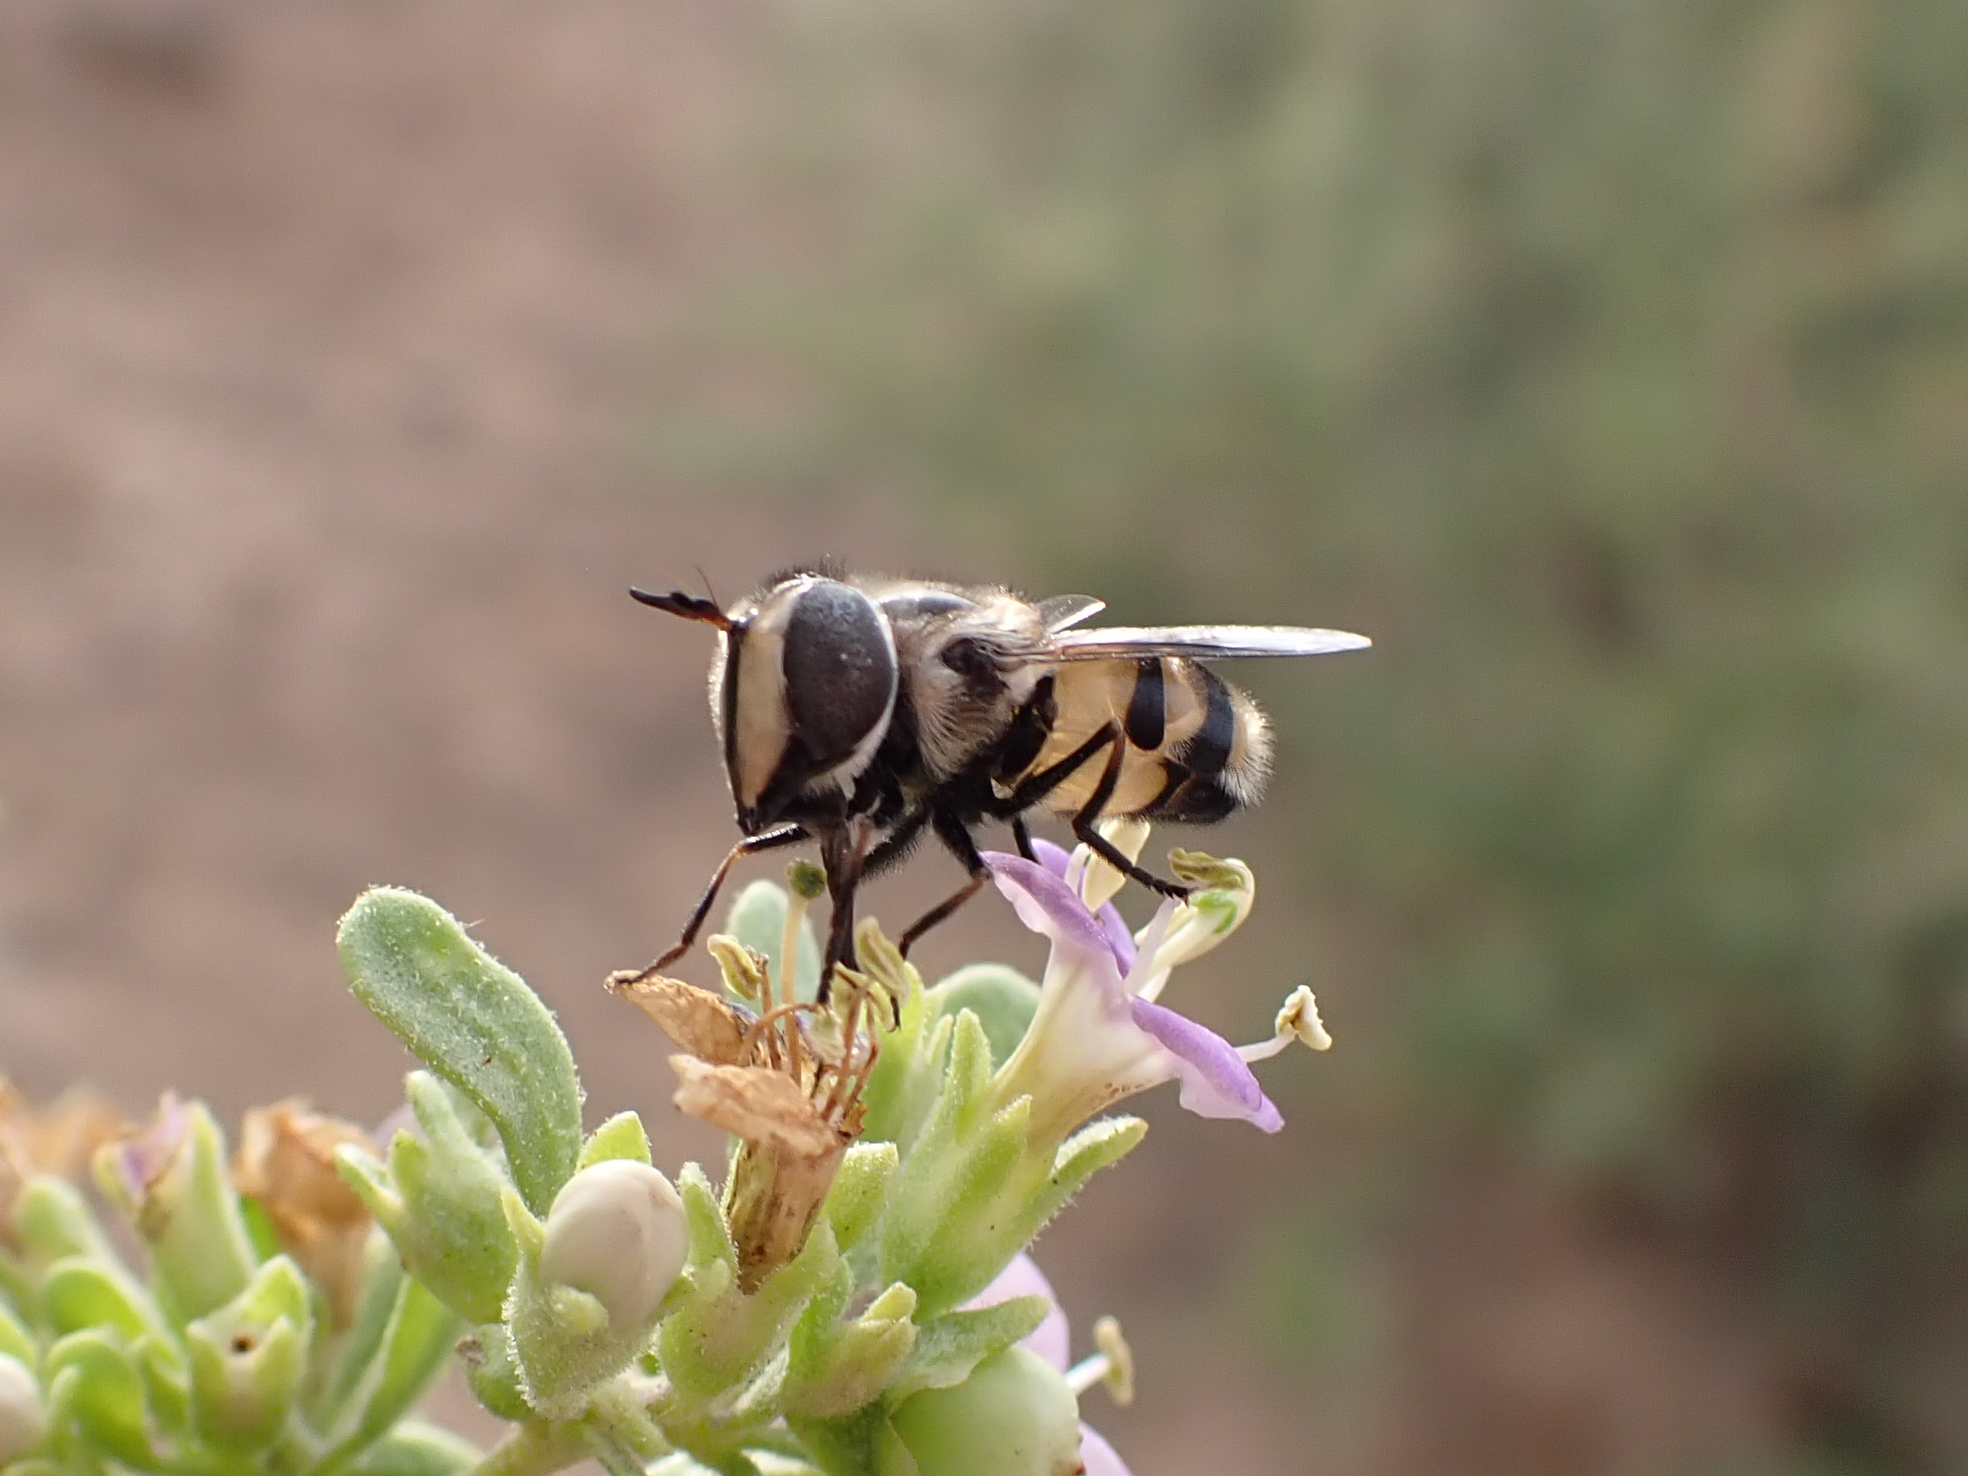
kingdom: Animalia
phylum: Arthropoda
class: Insecta
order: Diptera
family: Syrphidae
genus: Copestylum
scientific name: Copestylum fornax
